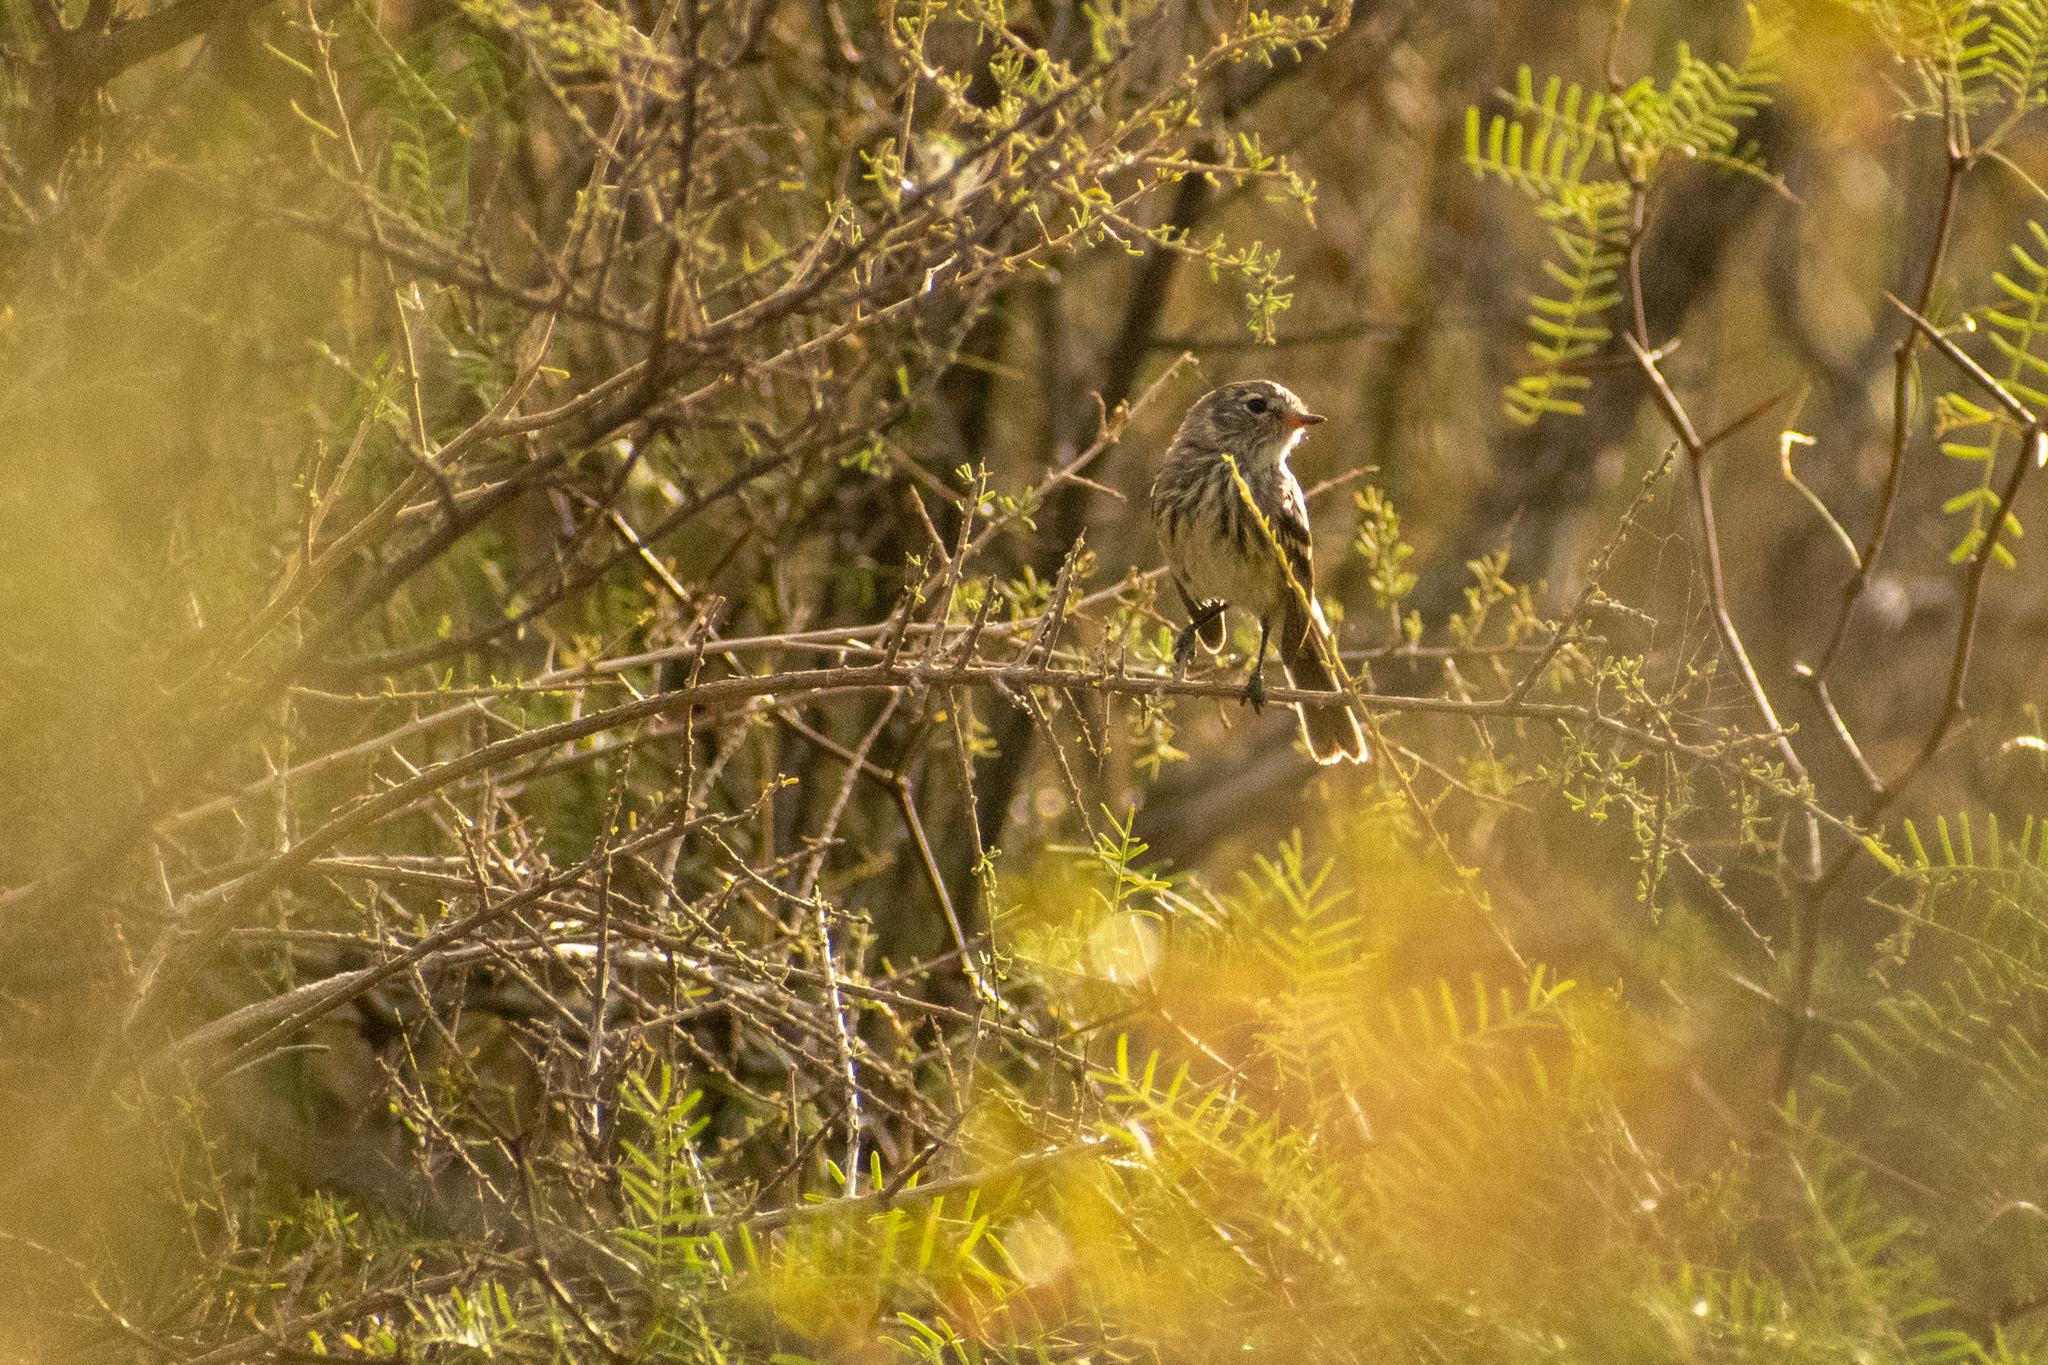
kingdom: Animalia
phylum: Chordata
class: Aves
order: Passeriformes
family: Tyrannidae
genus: Anairetes
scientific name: Anairetes flavirostris
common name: Yellow-billed tit-tyrant
